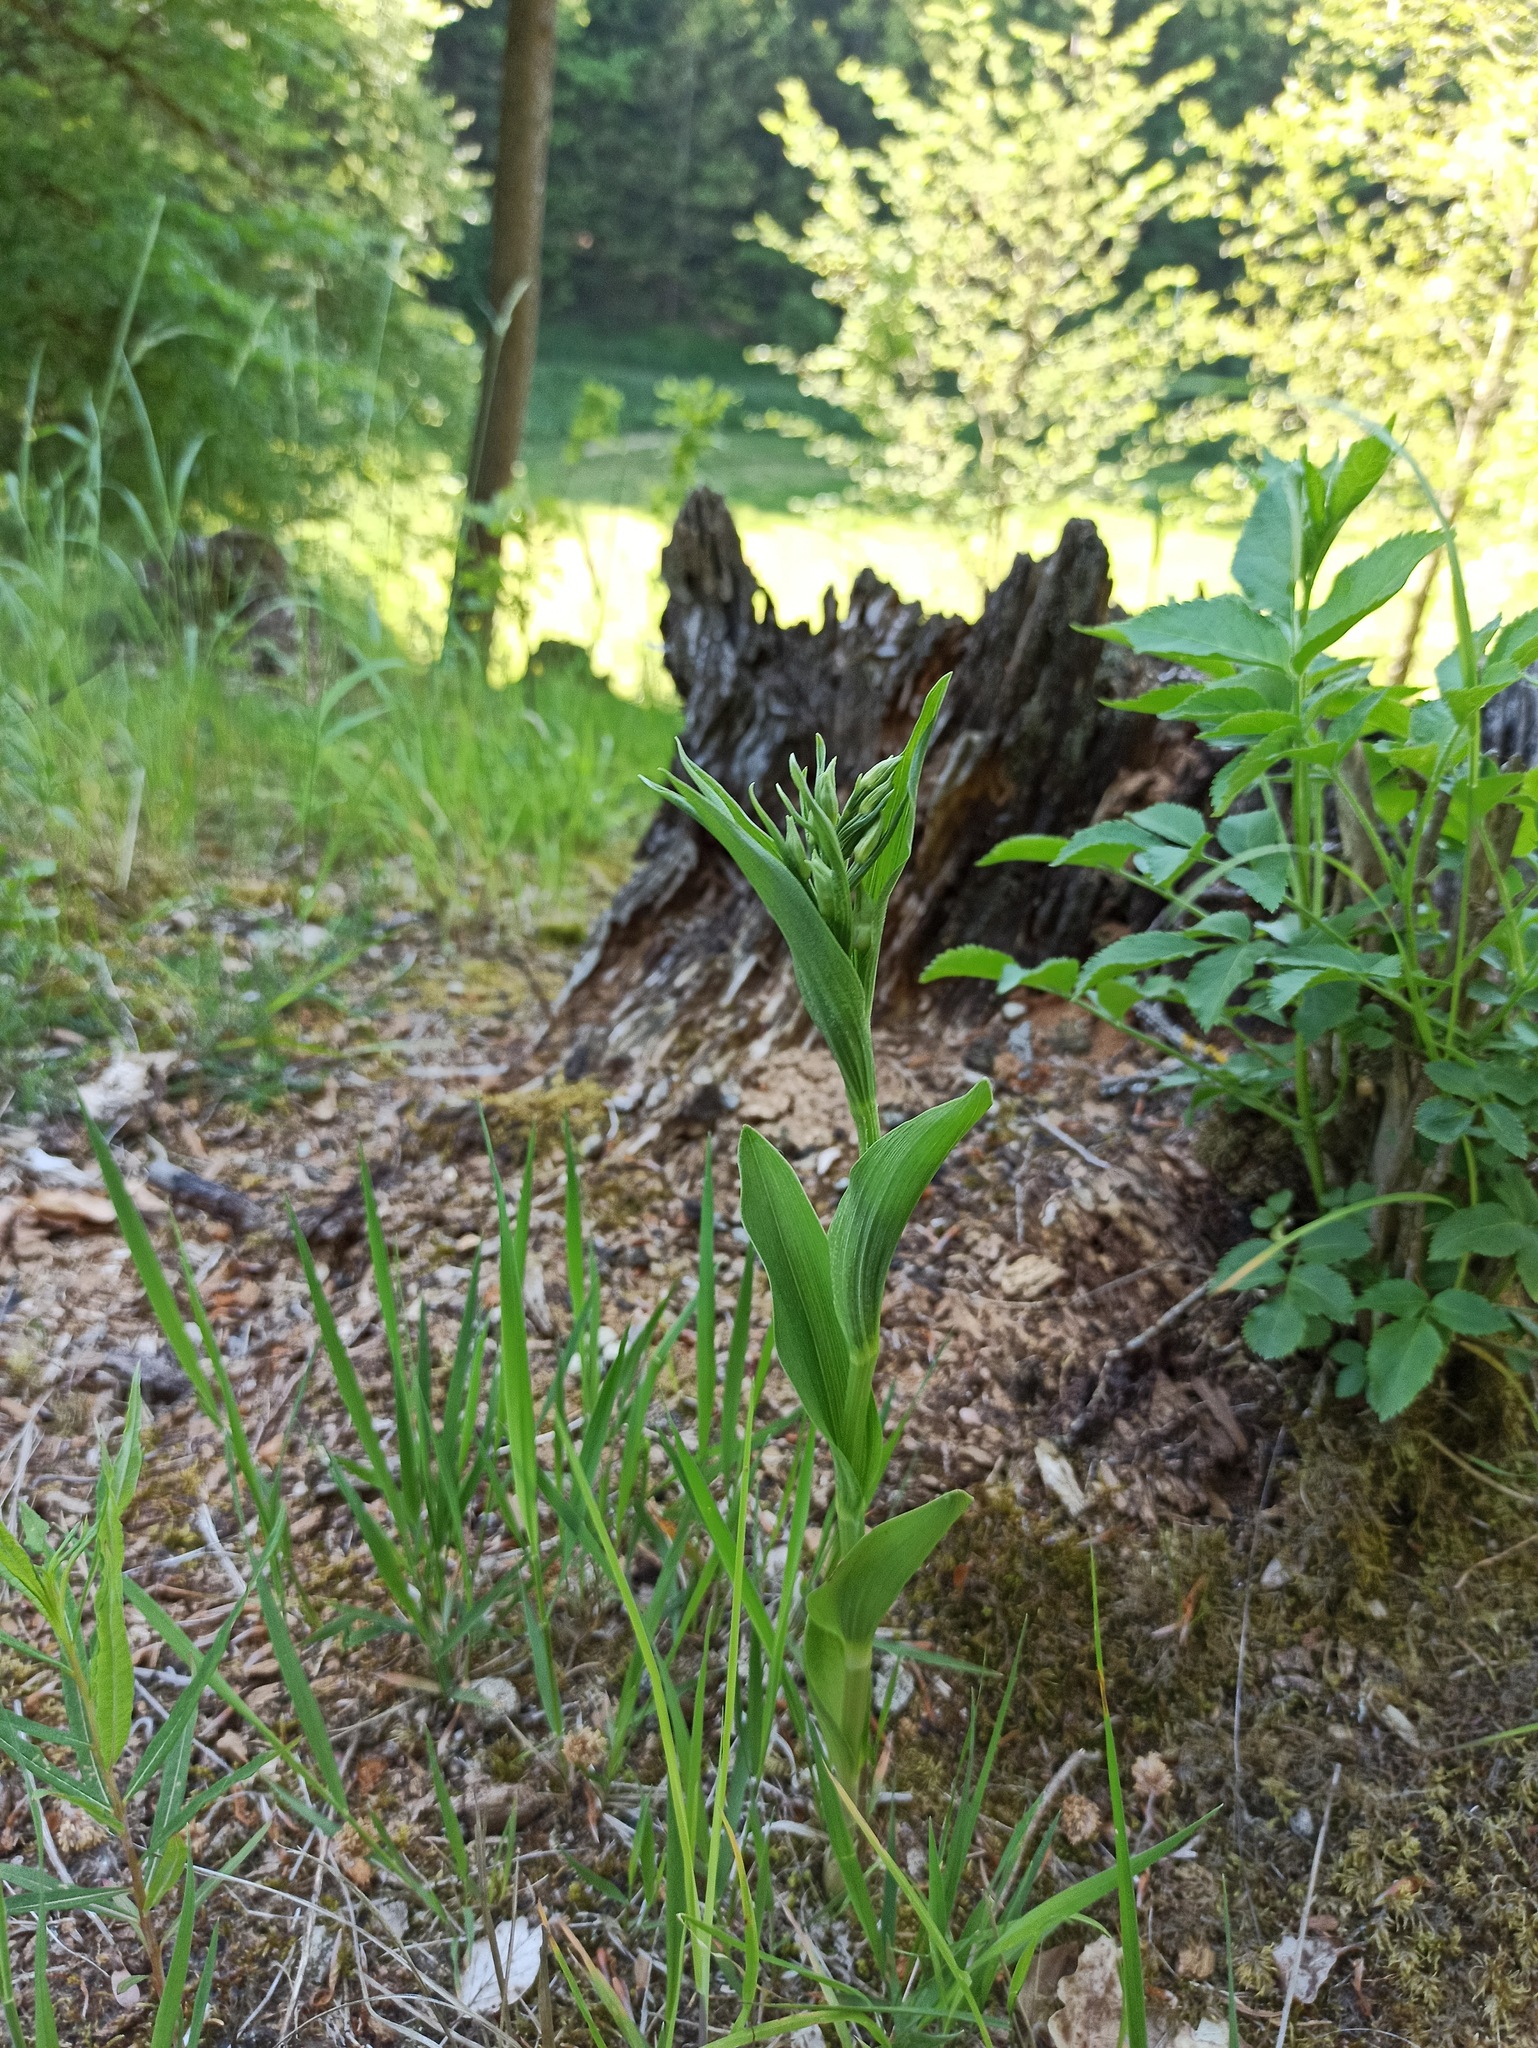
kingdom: Plantae
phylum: Tracheophyta
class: Liliopsida
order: Asparagales
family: Orchidaceae
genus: Cephalanthera
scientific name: Cephalanthera damasonium
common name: White helleborine
